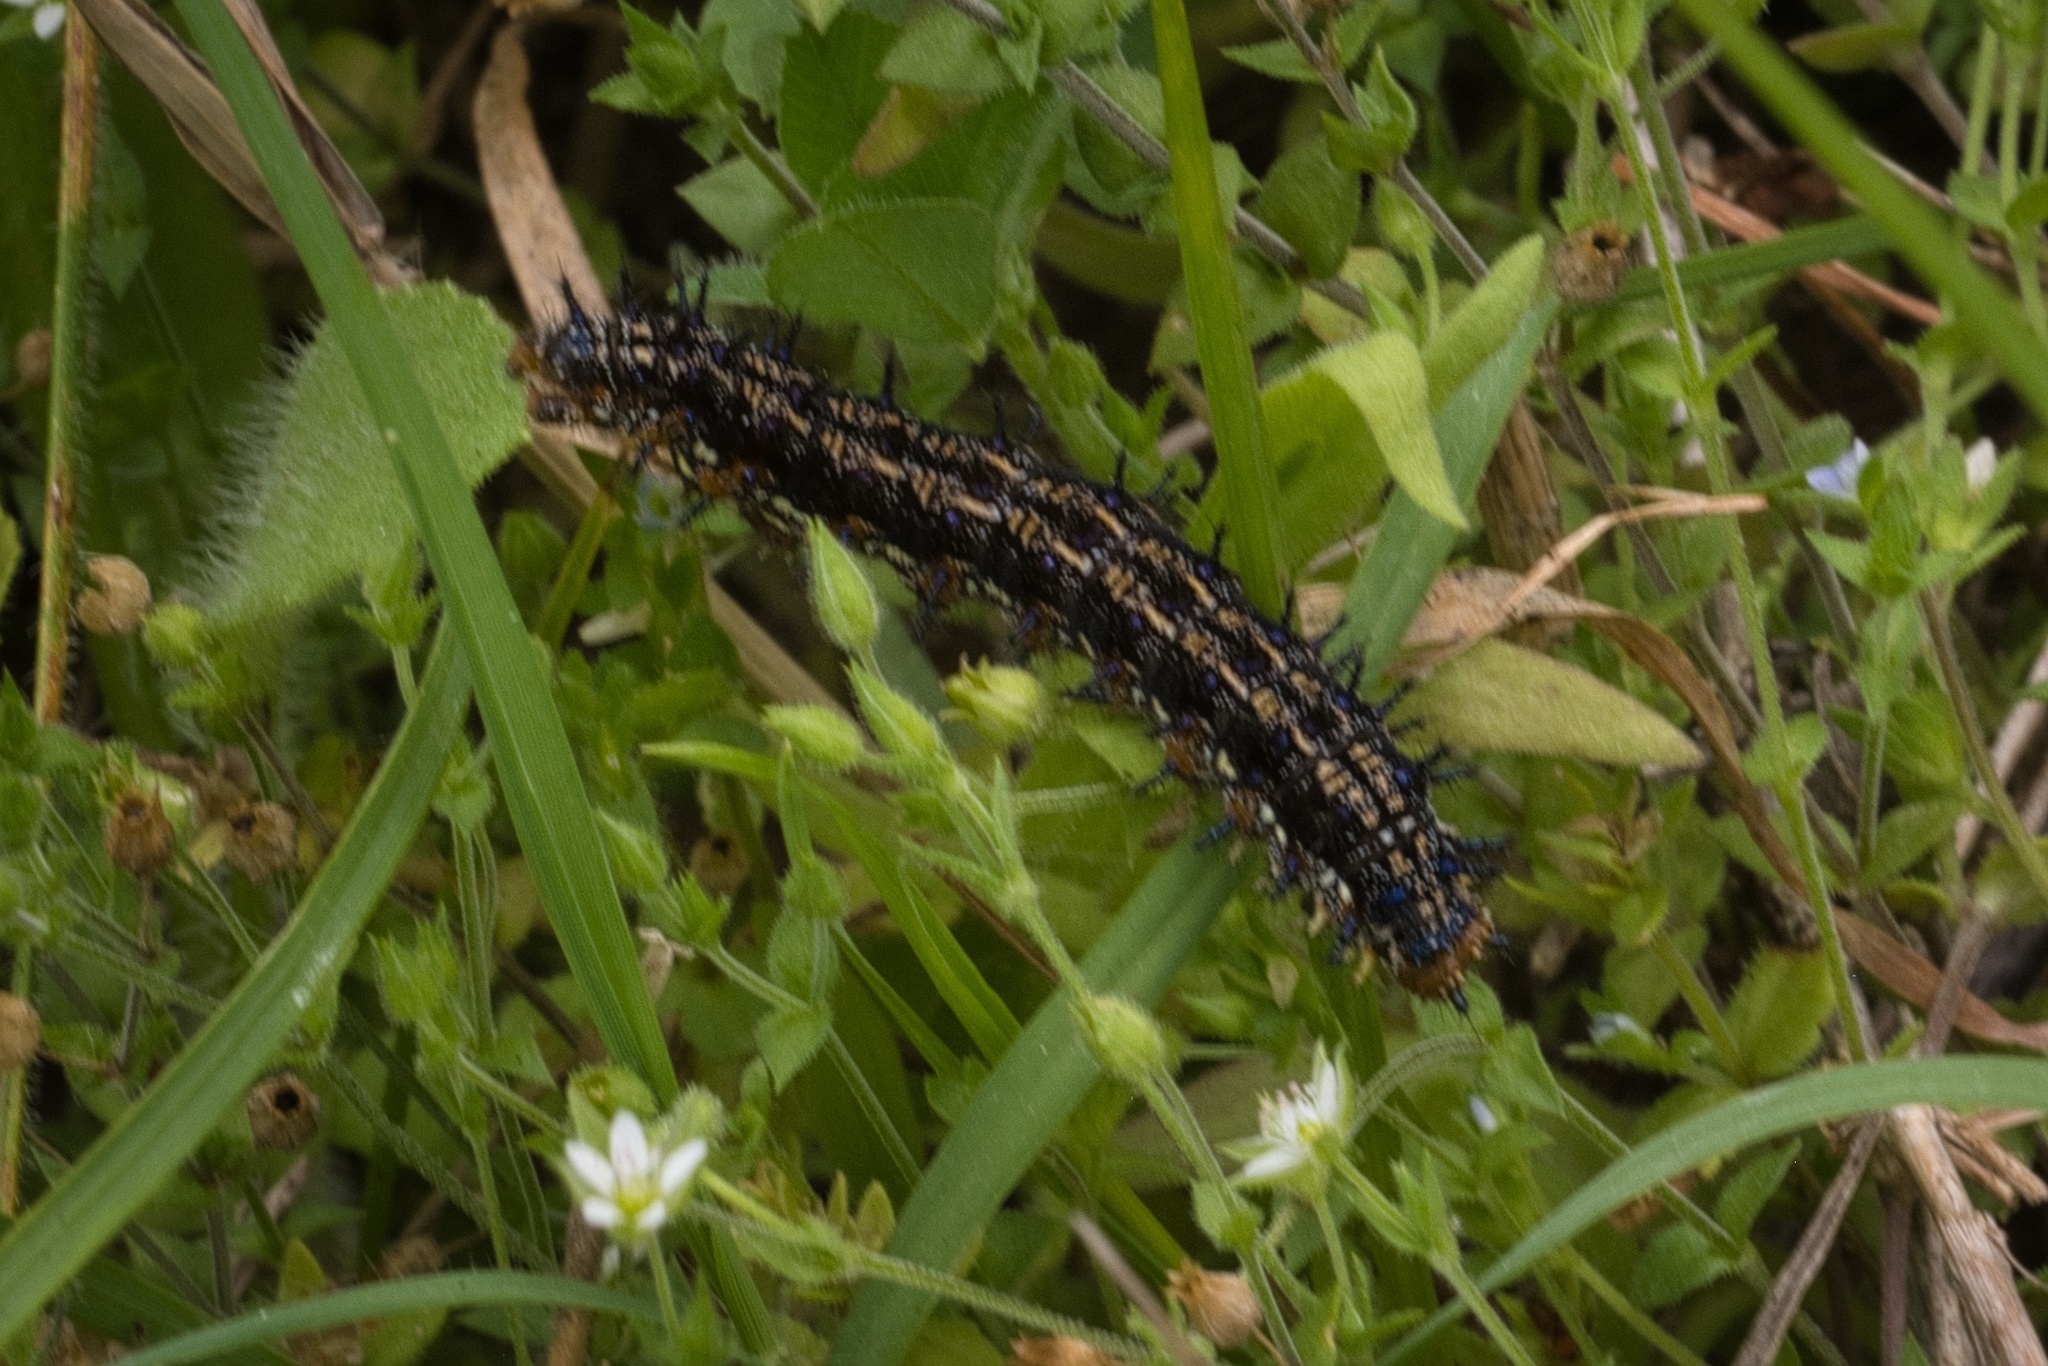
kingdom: Animalia
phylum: Arthropoda
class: Insecta
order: Lepidoptera
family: Nymphalidae
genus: Junonia
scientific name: Junonia coenia
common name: Common buckeye
